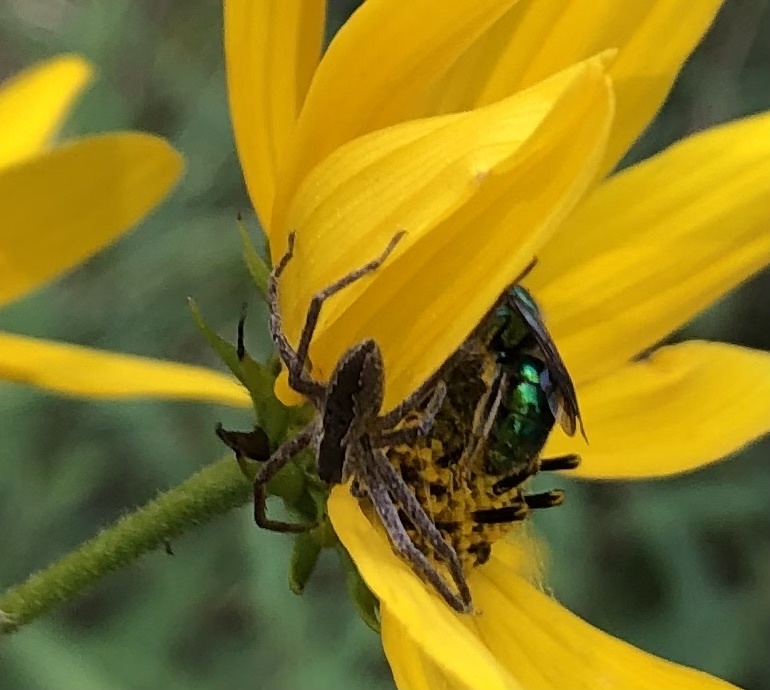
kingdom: Animalia
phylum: Arthropoda
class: Arachnida
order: Araneae
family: Pisauridae
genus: Pisaurina
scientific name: Pisaurina mira
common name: American nursery web spider
